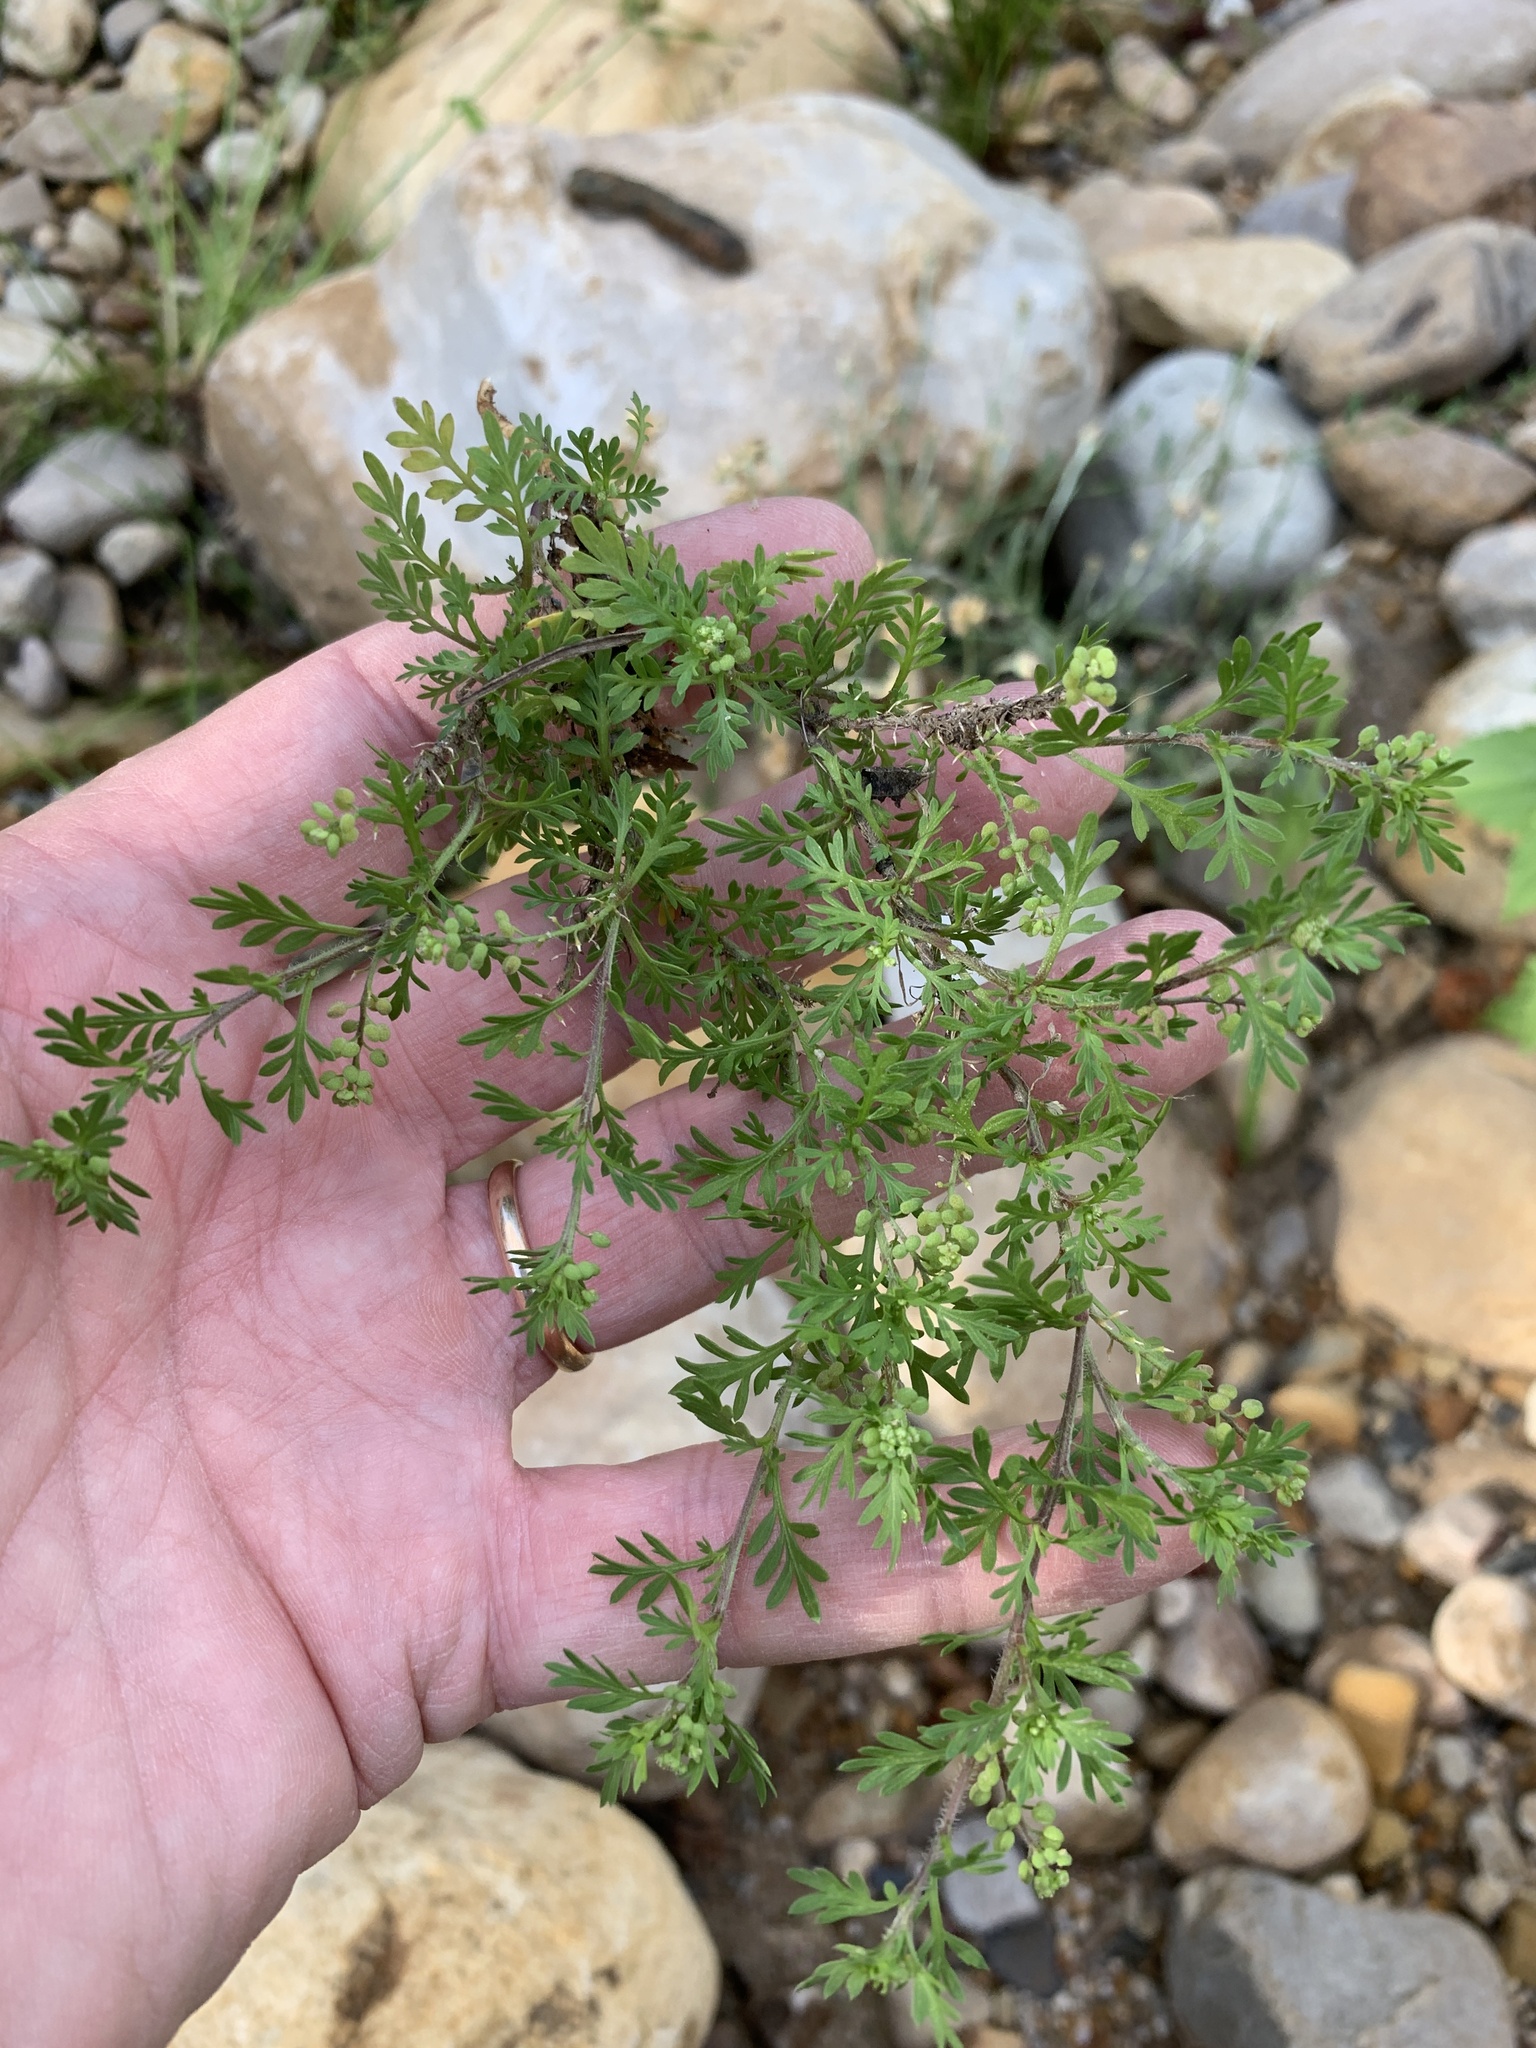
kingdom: Plantae
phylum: Tracheophyta
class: Magnoliopsida
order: Brassicales
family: Brassicaceae
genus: Lepidium
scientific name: Lepidium didymum
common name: Lesser swinecress
